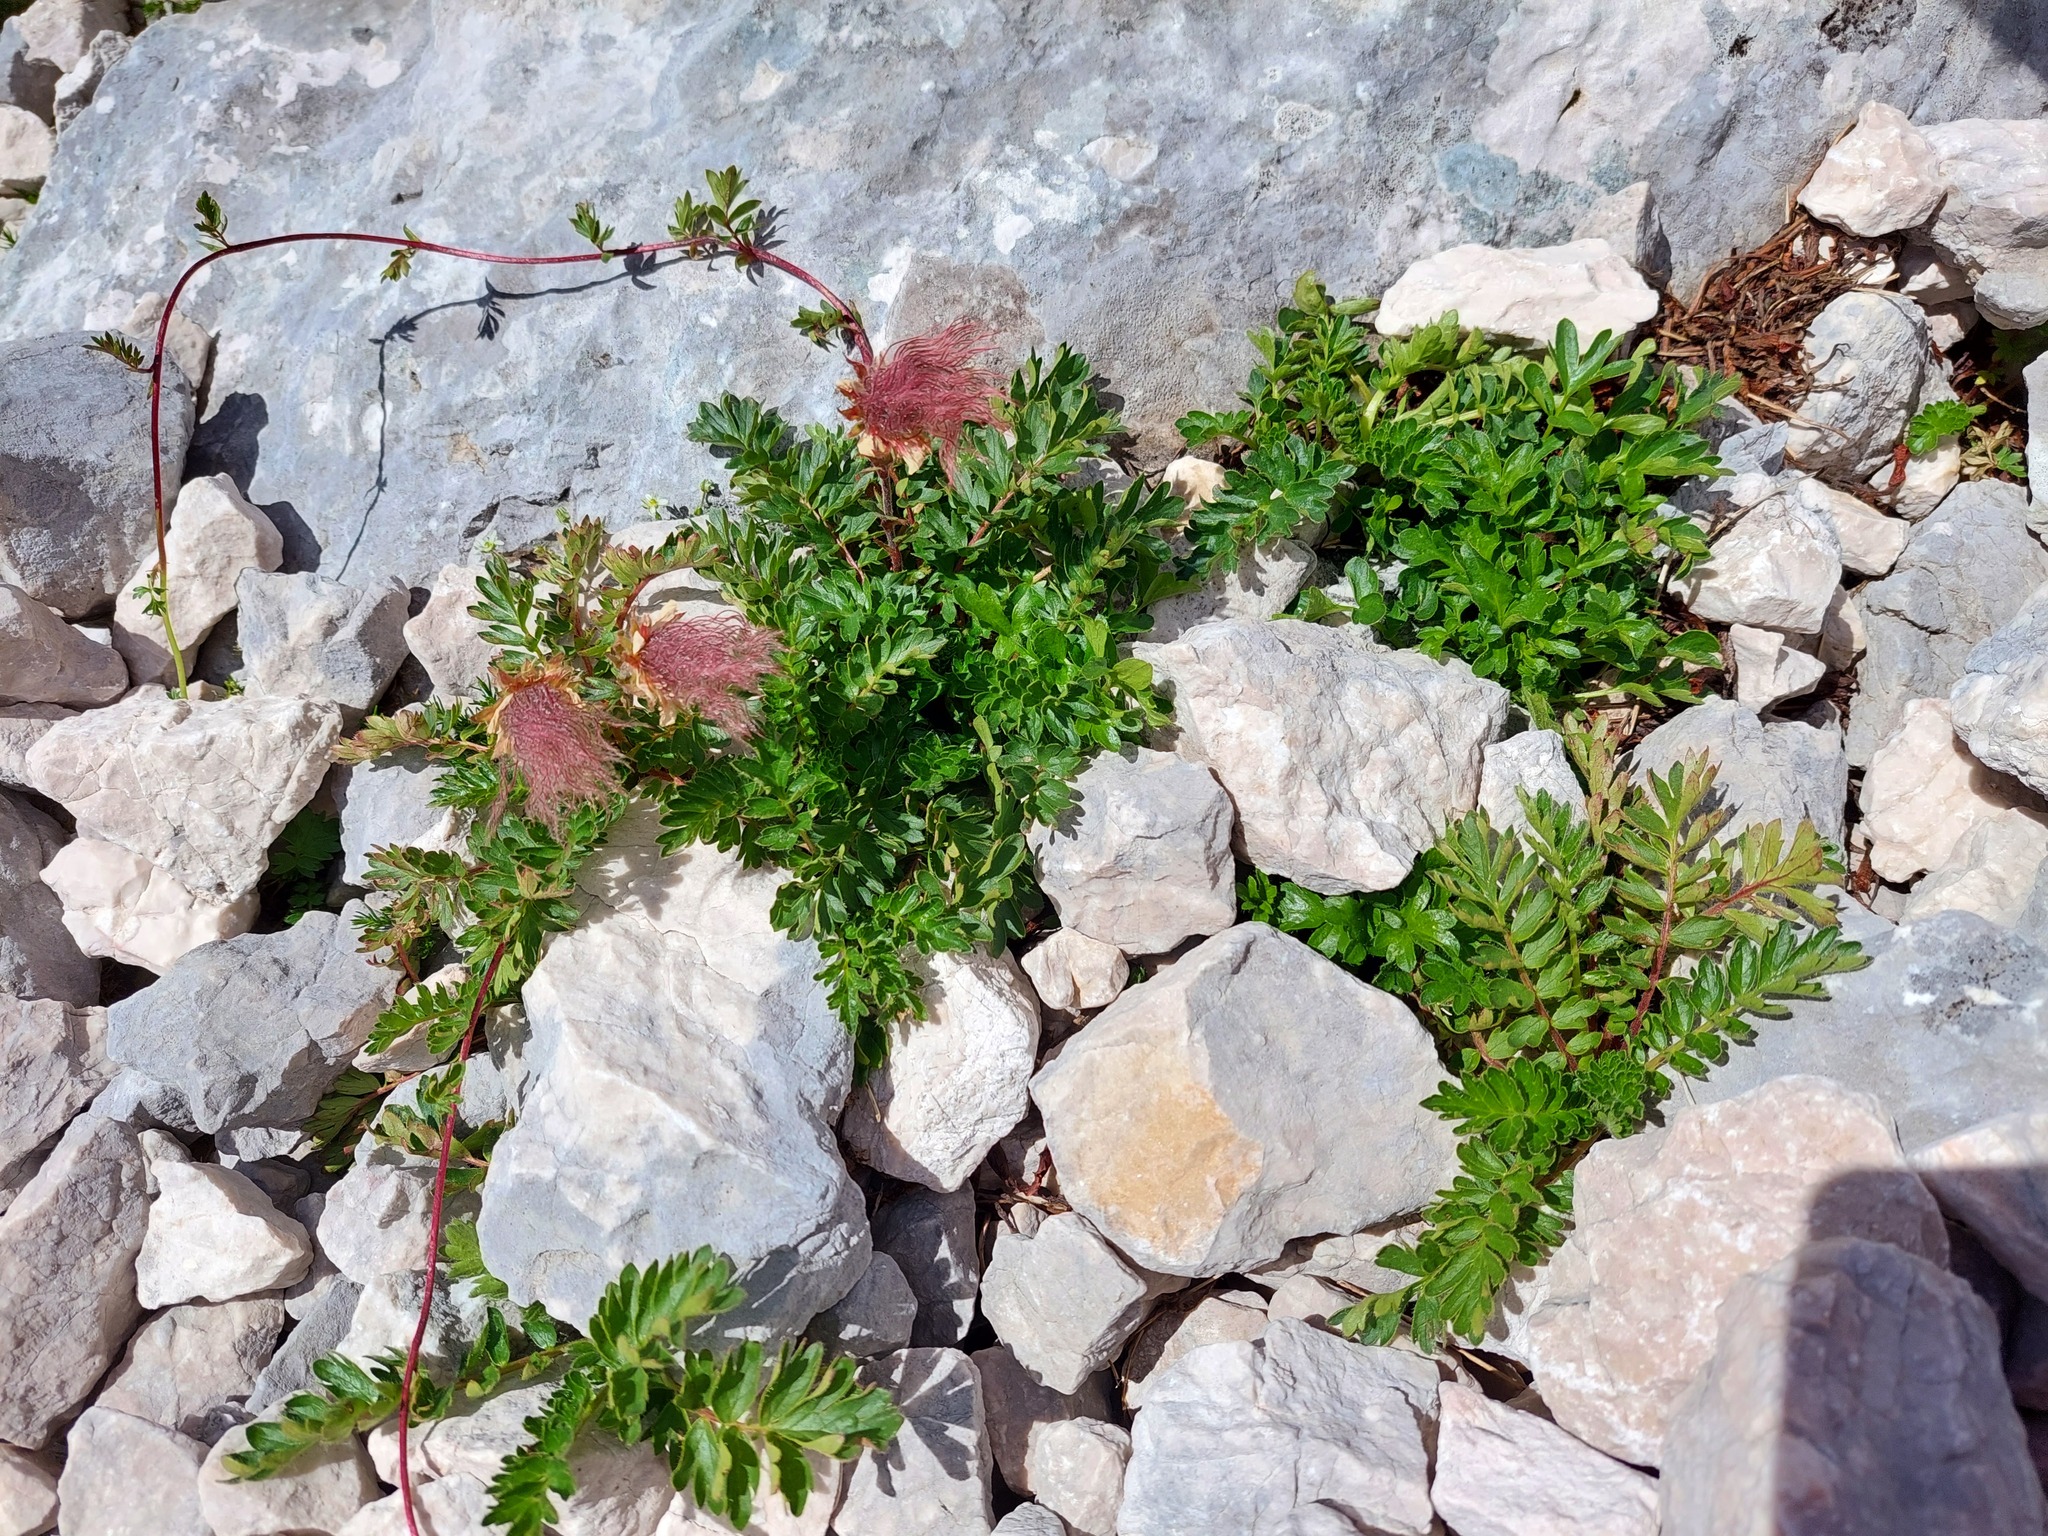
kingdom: Plantae
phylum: Tracheophyta
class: Magnoliopsida
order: Rosales
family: Rosaceae
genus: Geum
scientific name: Geum reptans
